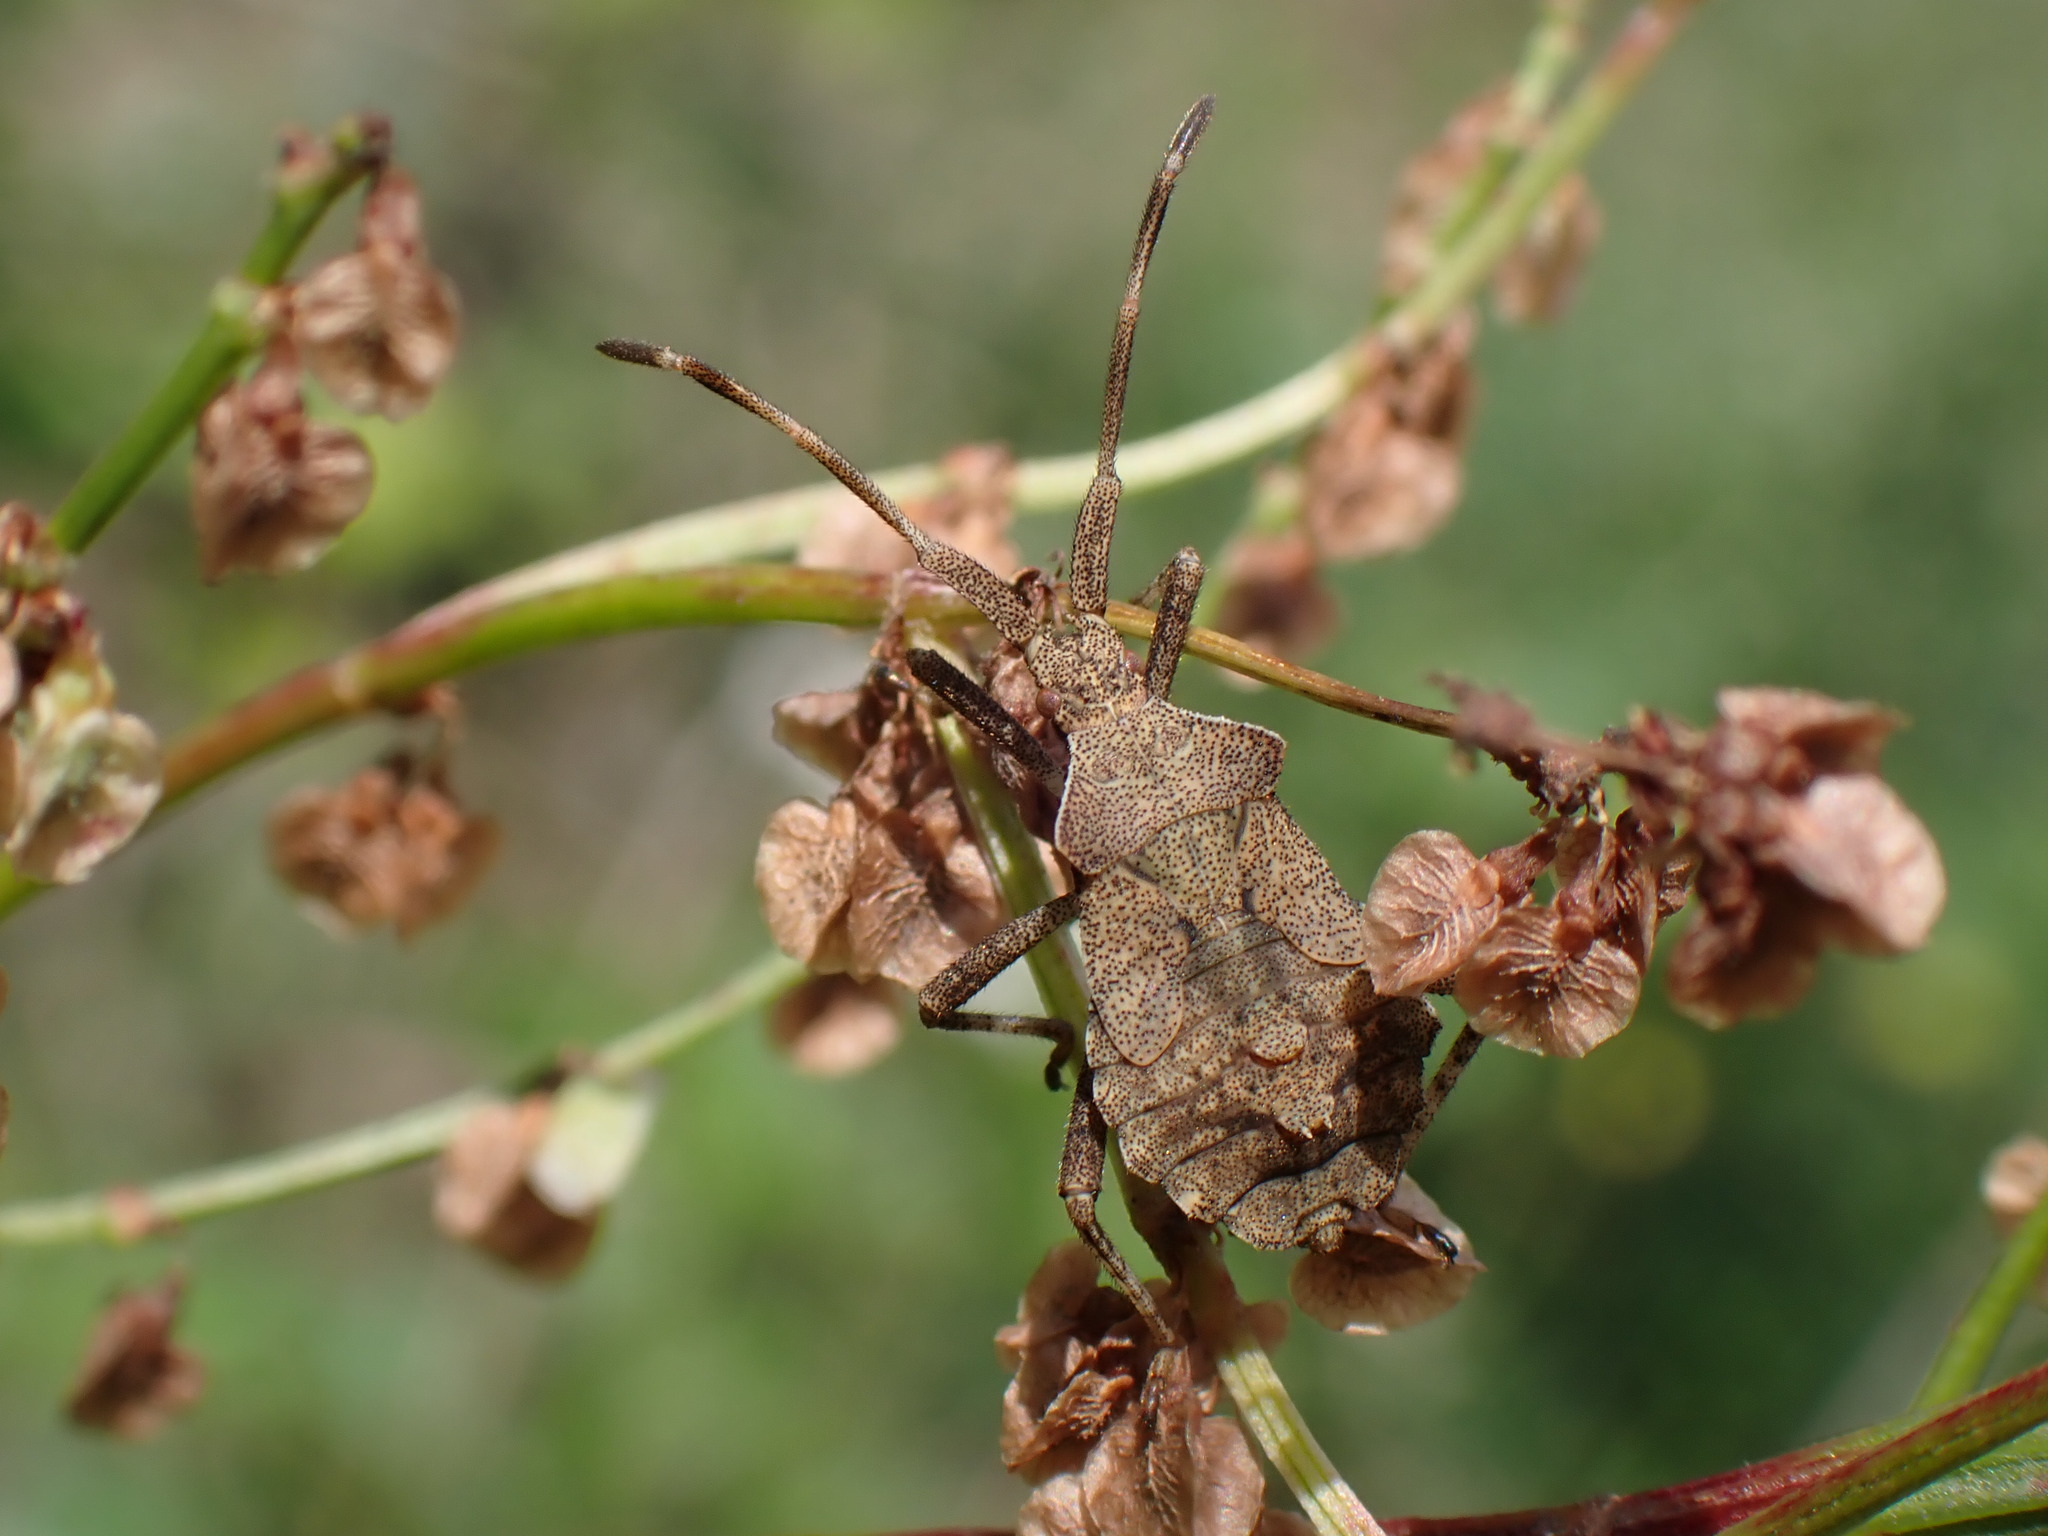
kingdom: Animalia
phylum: Arthropoda
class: Insecta
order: Hemiptera
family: Coreidae
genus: Coreus
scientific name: Coreus marginatus
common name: Dock bug
